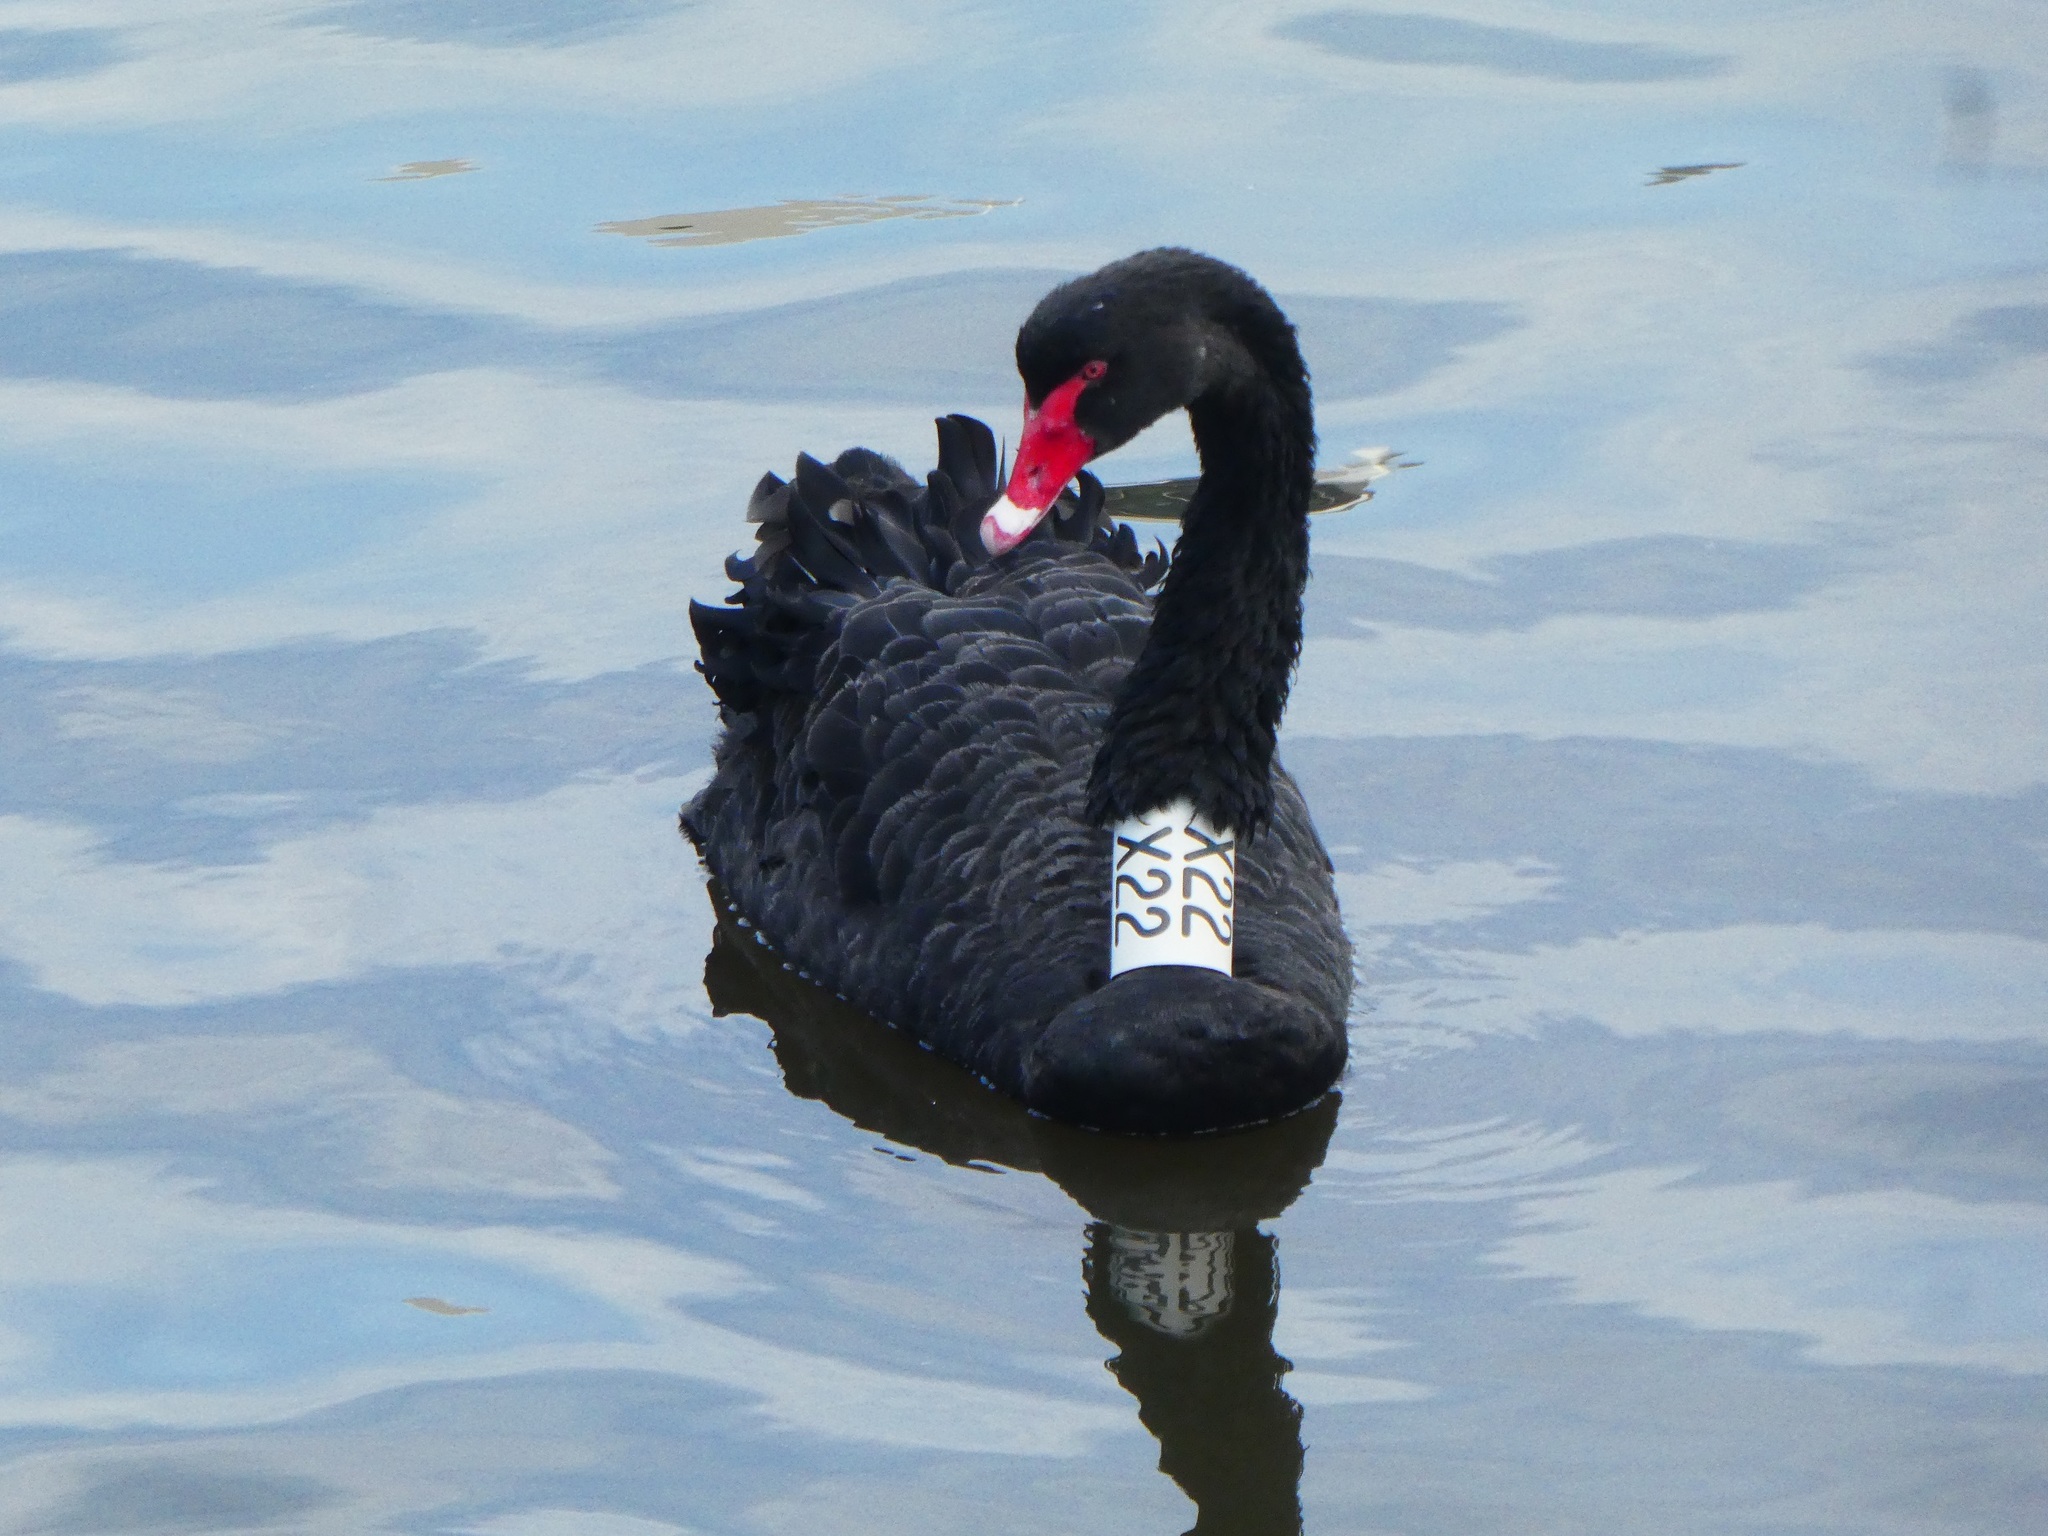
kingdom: Animalia
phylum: Chordata
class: Aves
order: Anseriformes
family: Anatidae
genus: Cygnus
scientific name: Cygnus atratus
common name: Black swan
